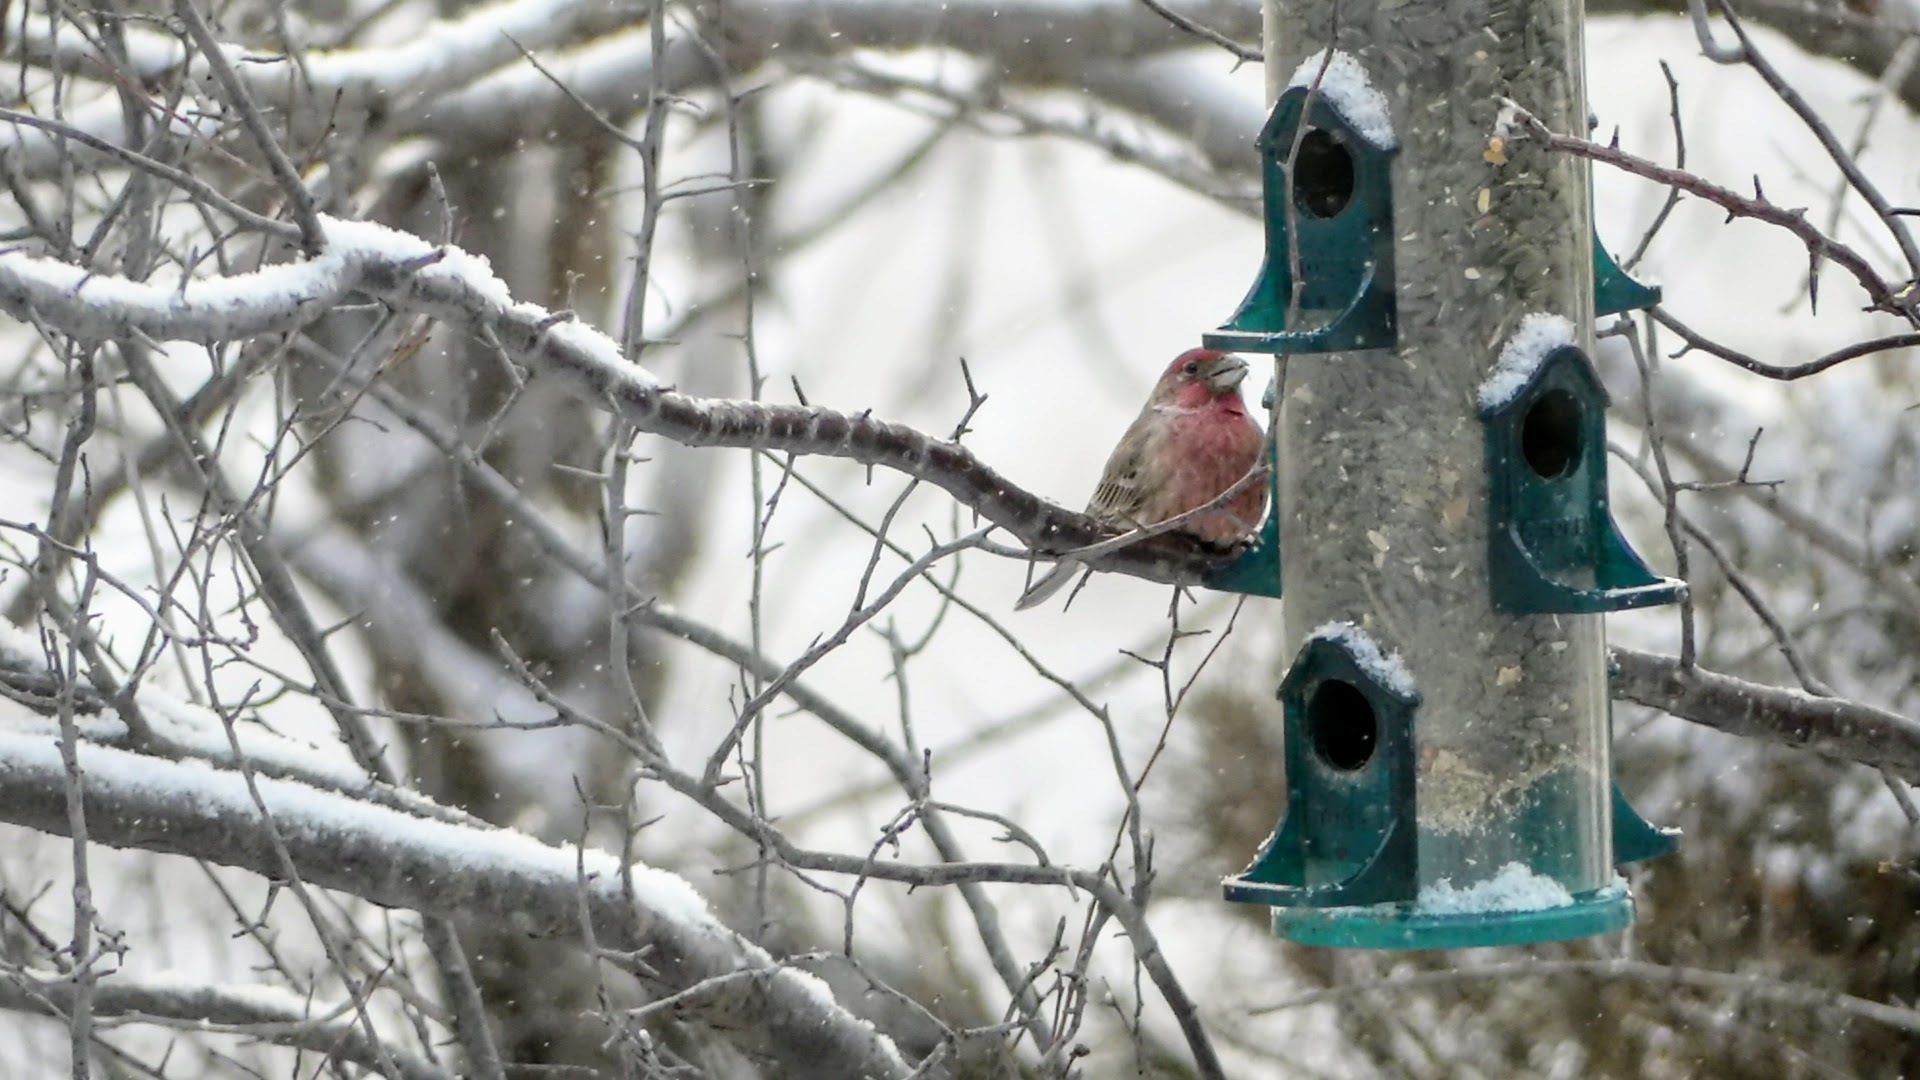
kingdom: Animalia
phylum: Chordata
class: Aves
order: Passeriformes
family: Fringillidae
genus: Haemorhous
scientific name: Haemorhous mexicanus
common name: House finch
